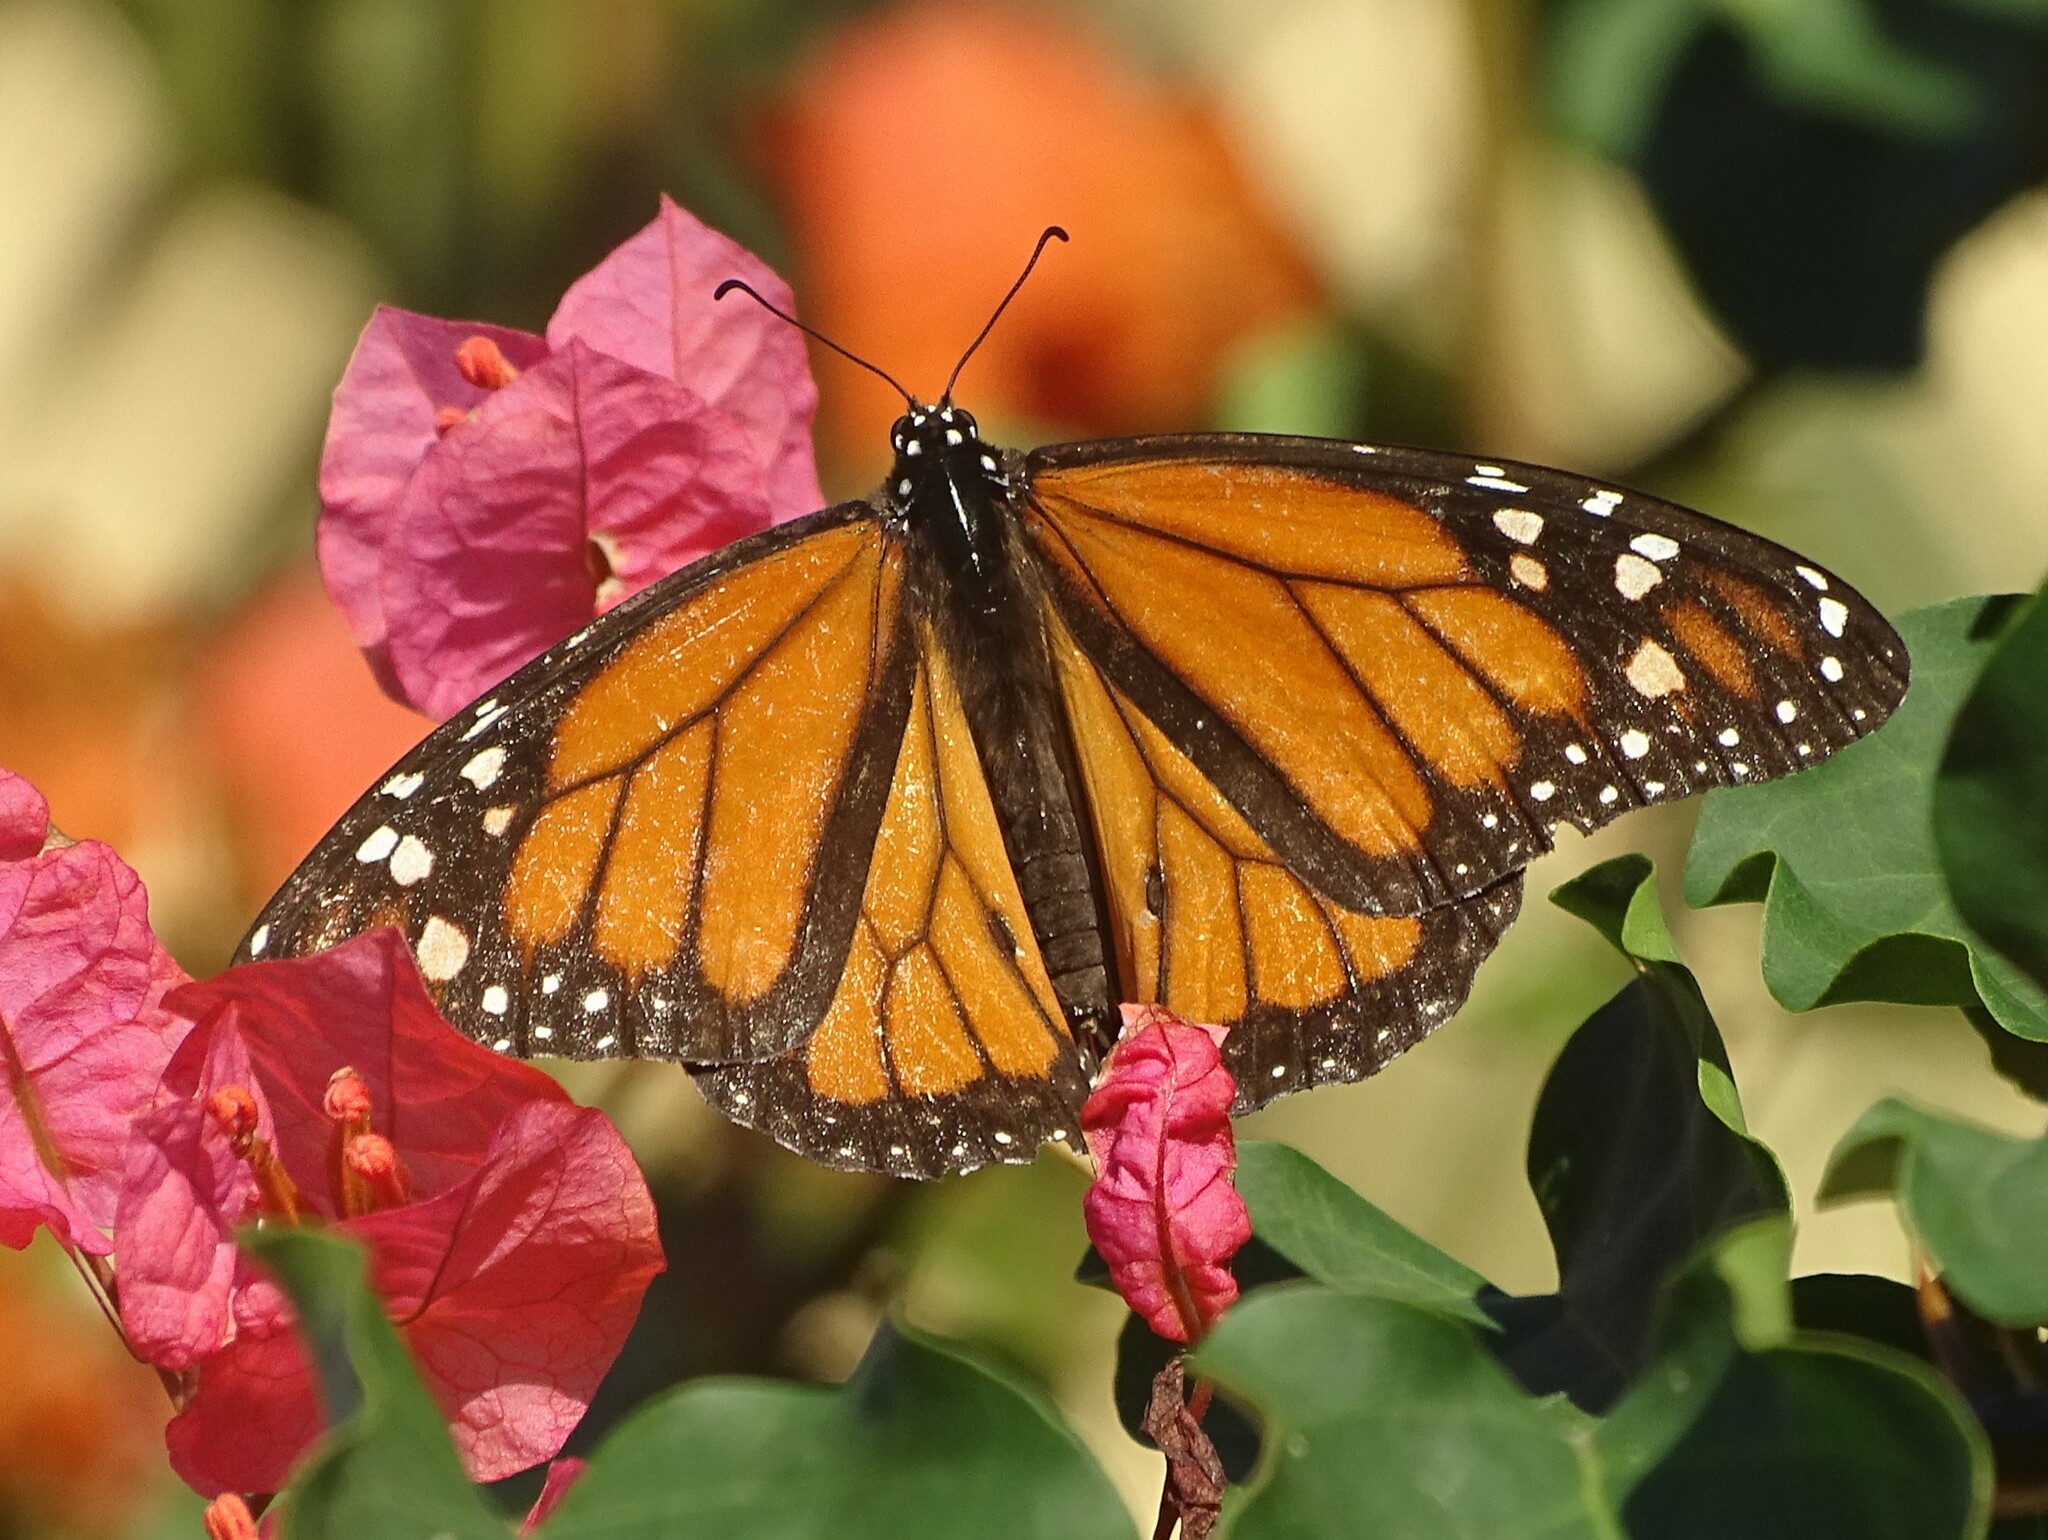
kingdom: Animalia
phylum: Arthropoda
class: Insecta
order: Lepidoptera
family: Nymphalidae
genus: Danaus
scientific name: Danaus plexippus
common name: Monarch
